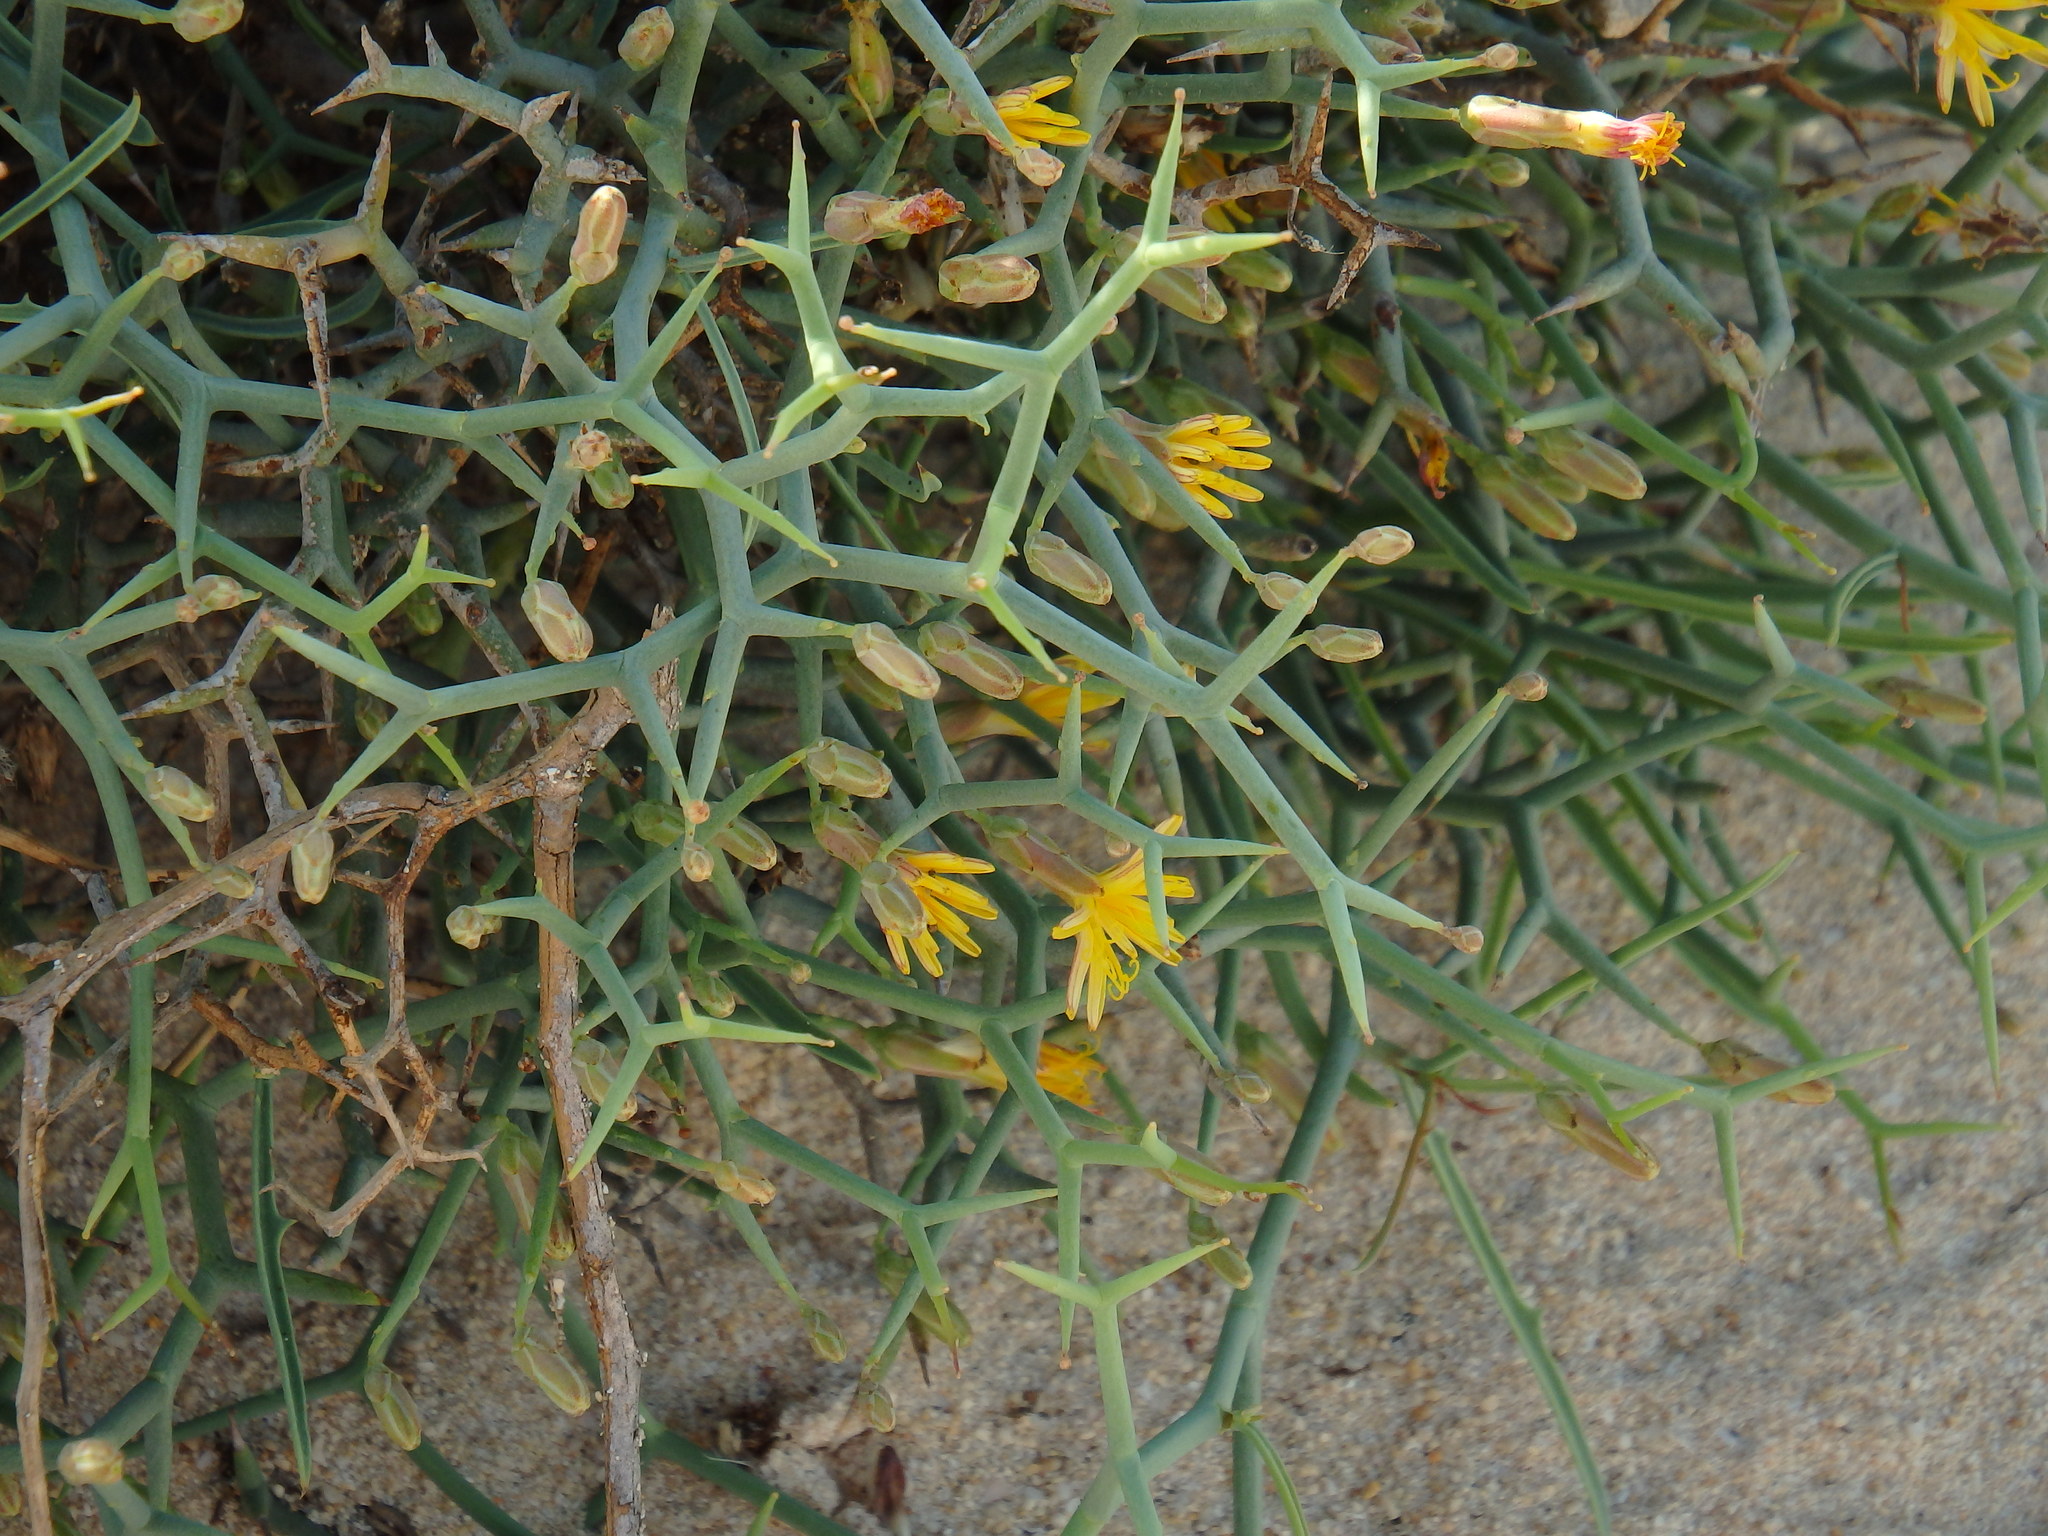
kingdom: Plantae
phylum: Tracheophyta
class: Magnoliopsida
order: Asterales
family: Asteraceae
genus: Launaea
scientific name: Launaea arborescens
